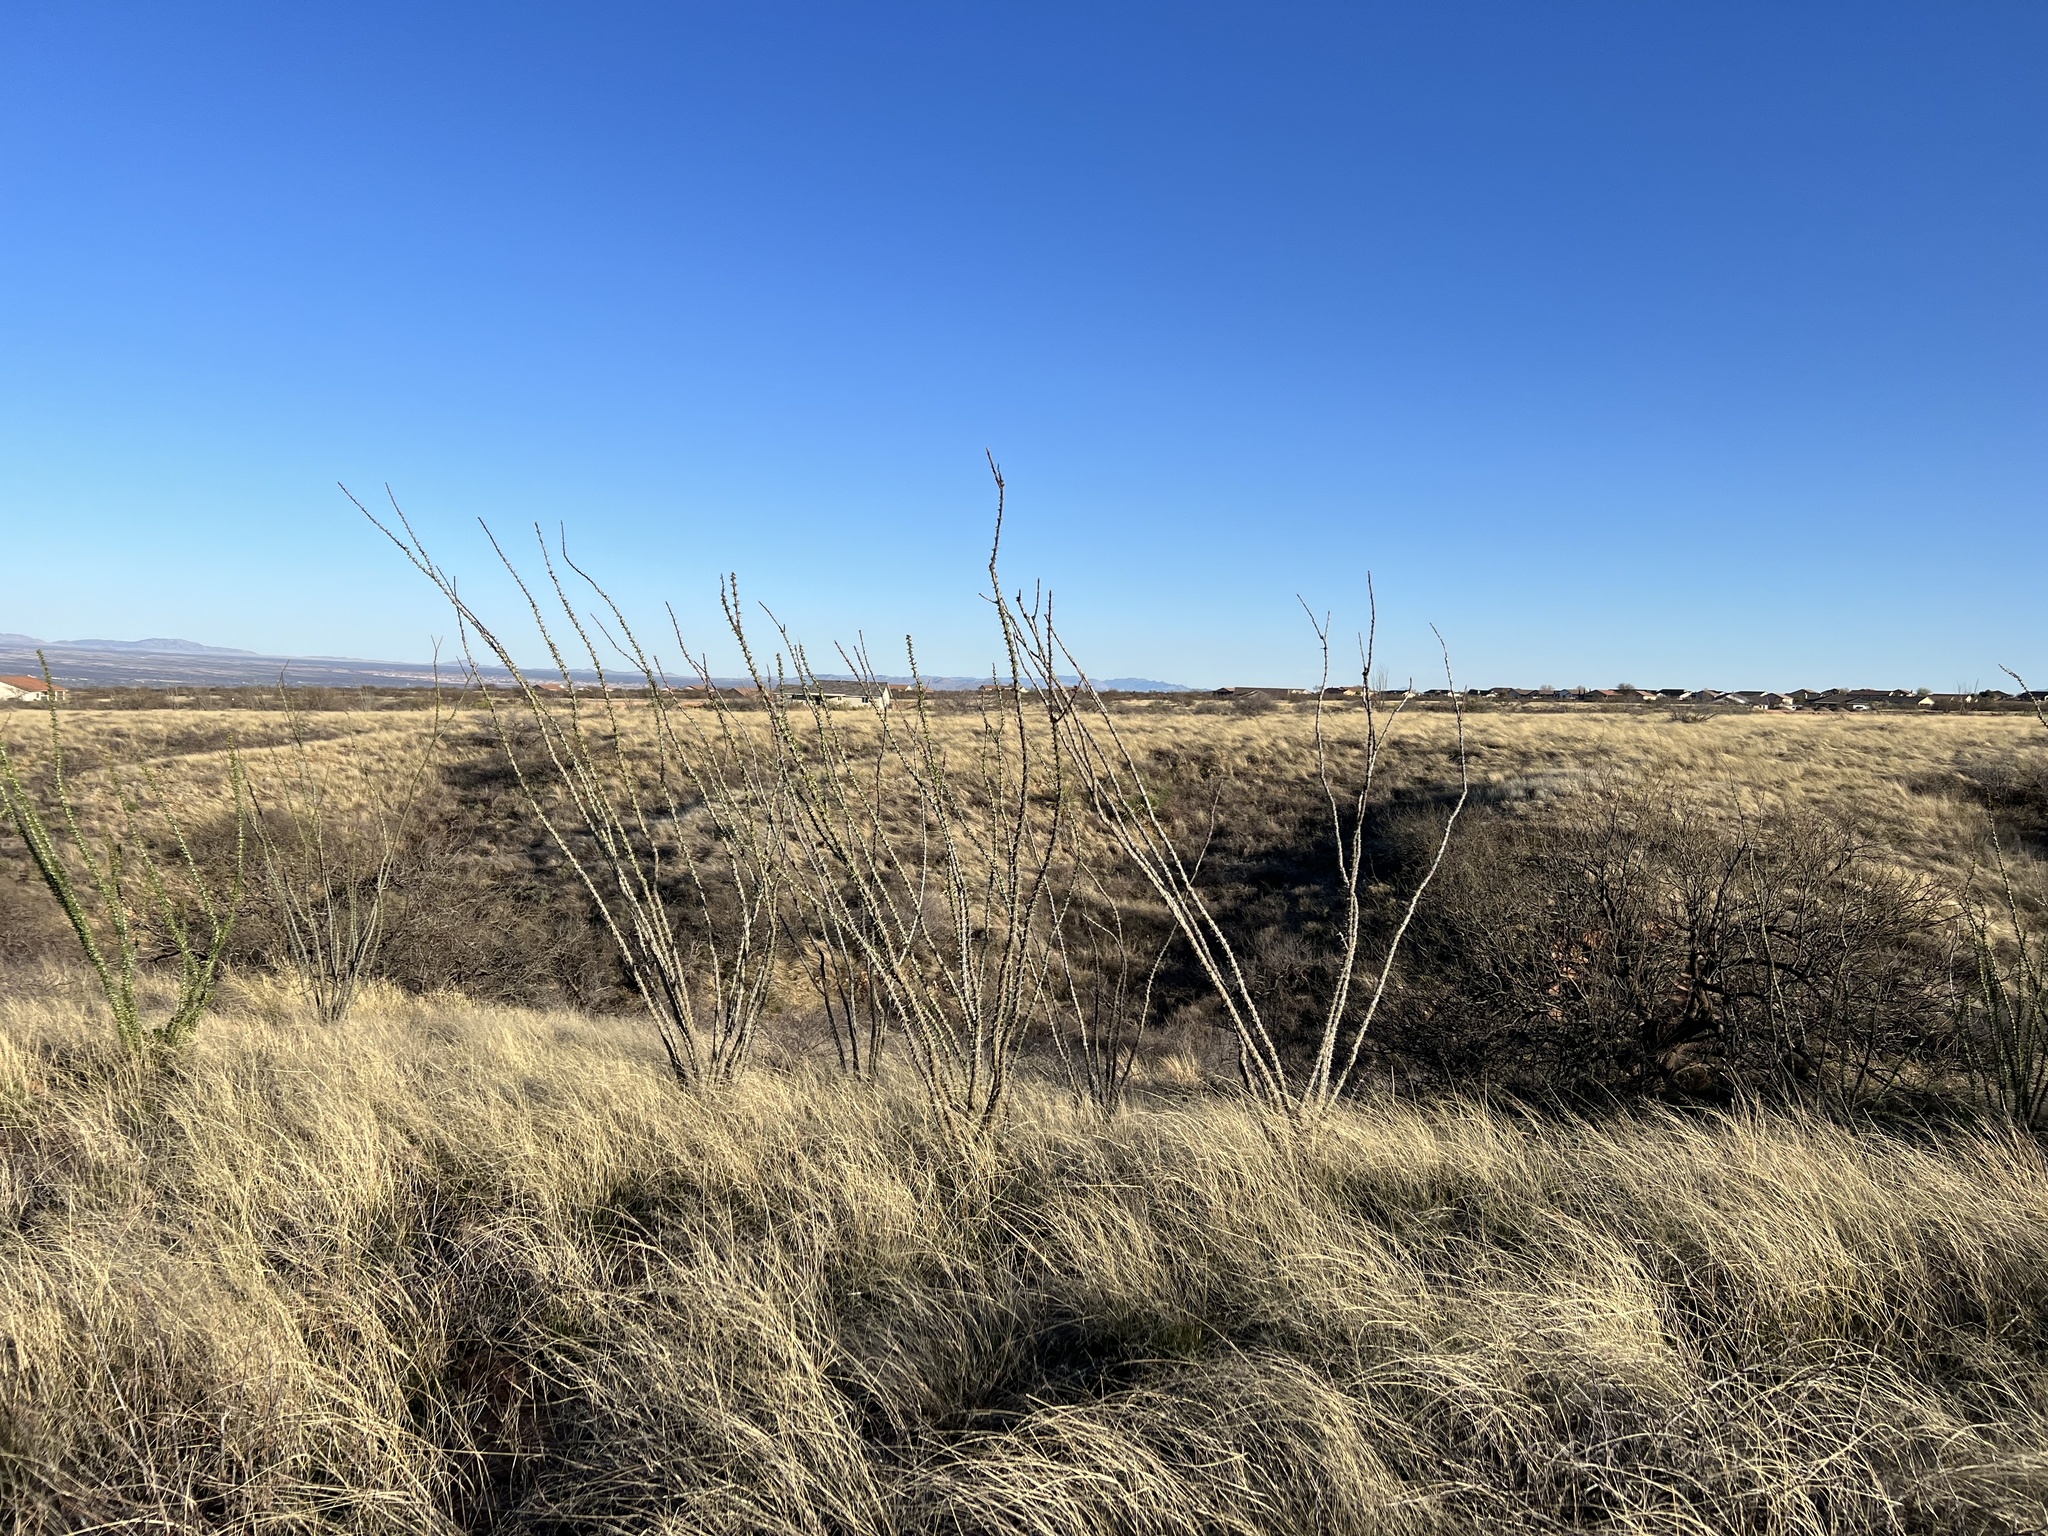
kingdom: Plantae
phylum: Tracheophyta
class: Magnoliopsida
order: Ericales
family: Fouquieriaceae
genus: Fouquieria
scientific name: Fouquieria splendens
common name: Vine-cactus
